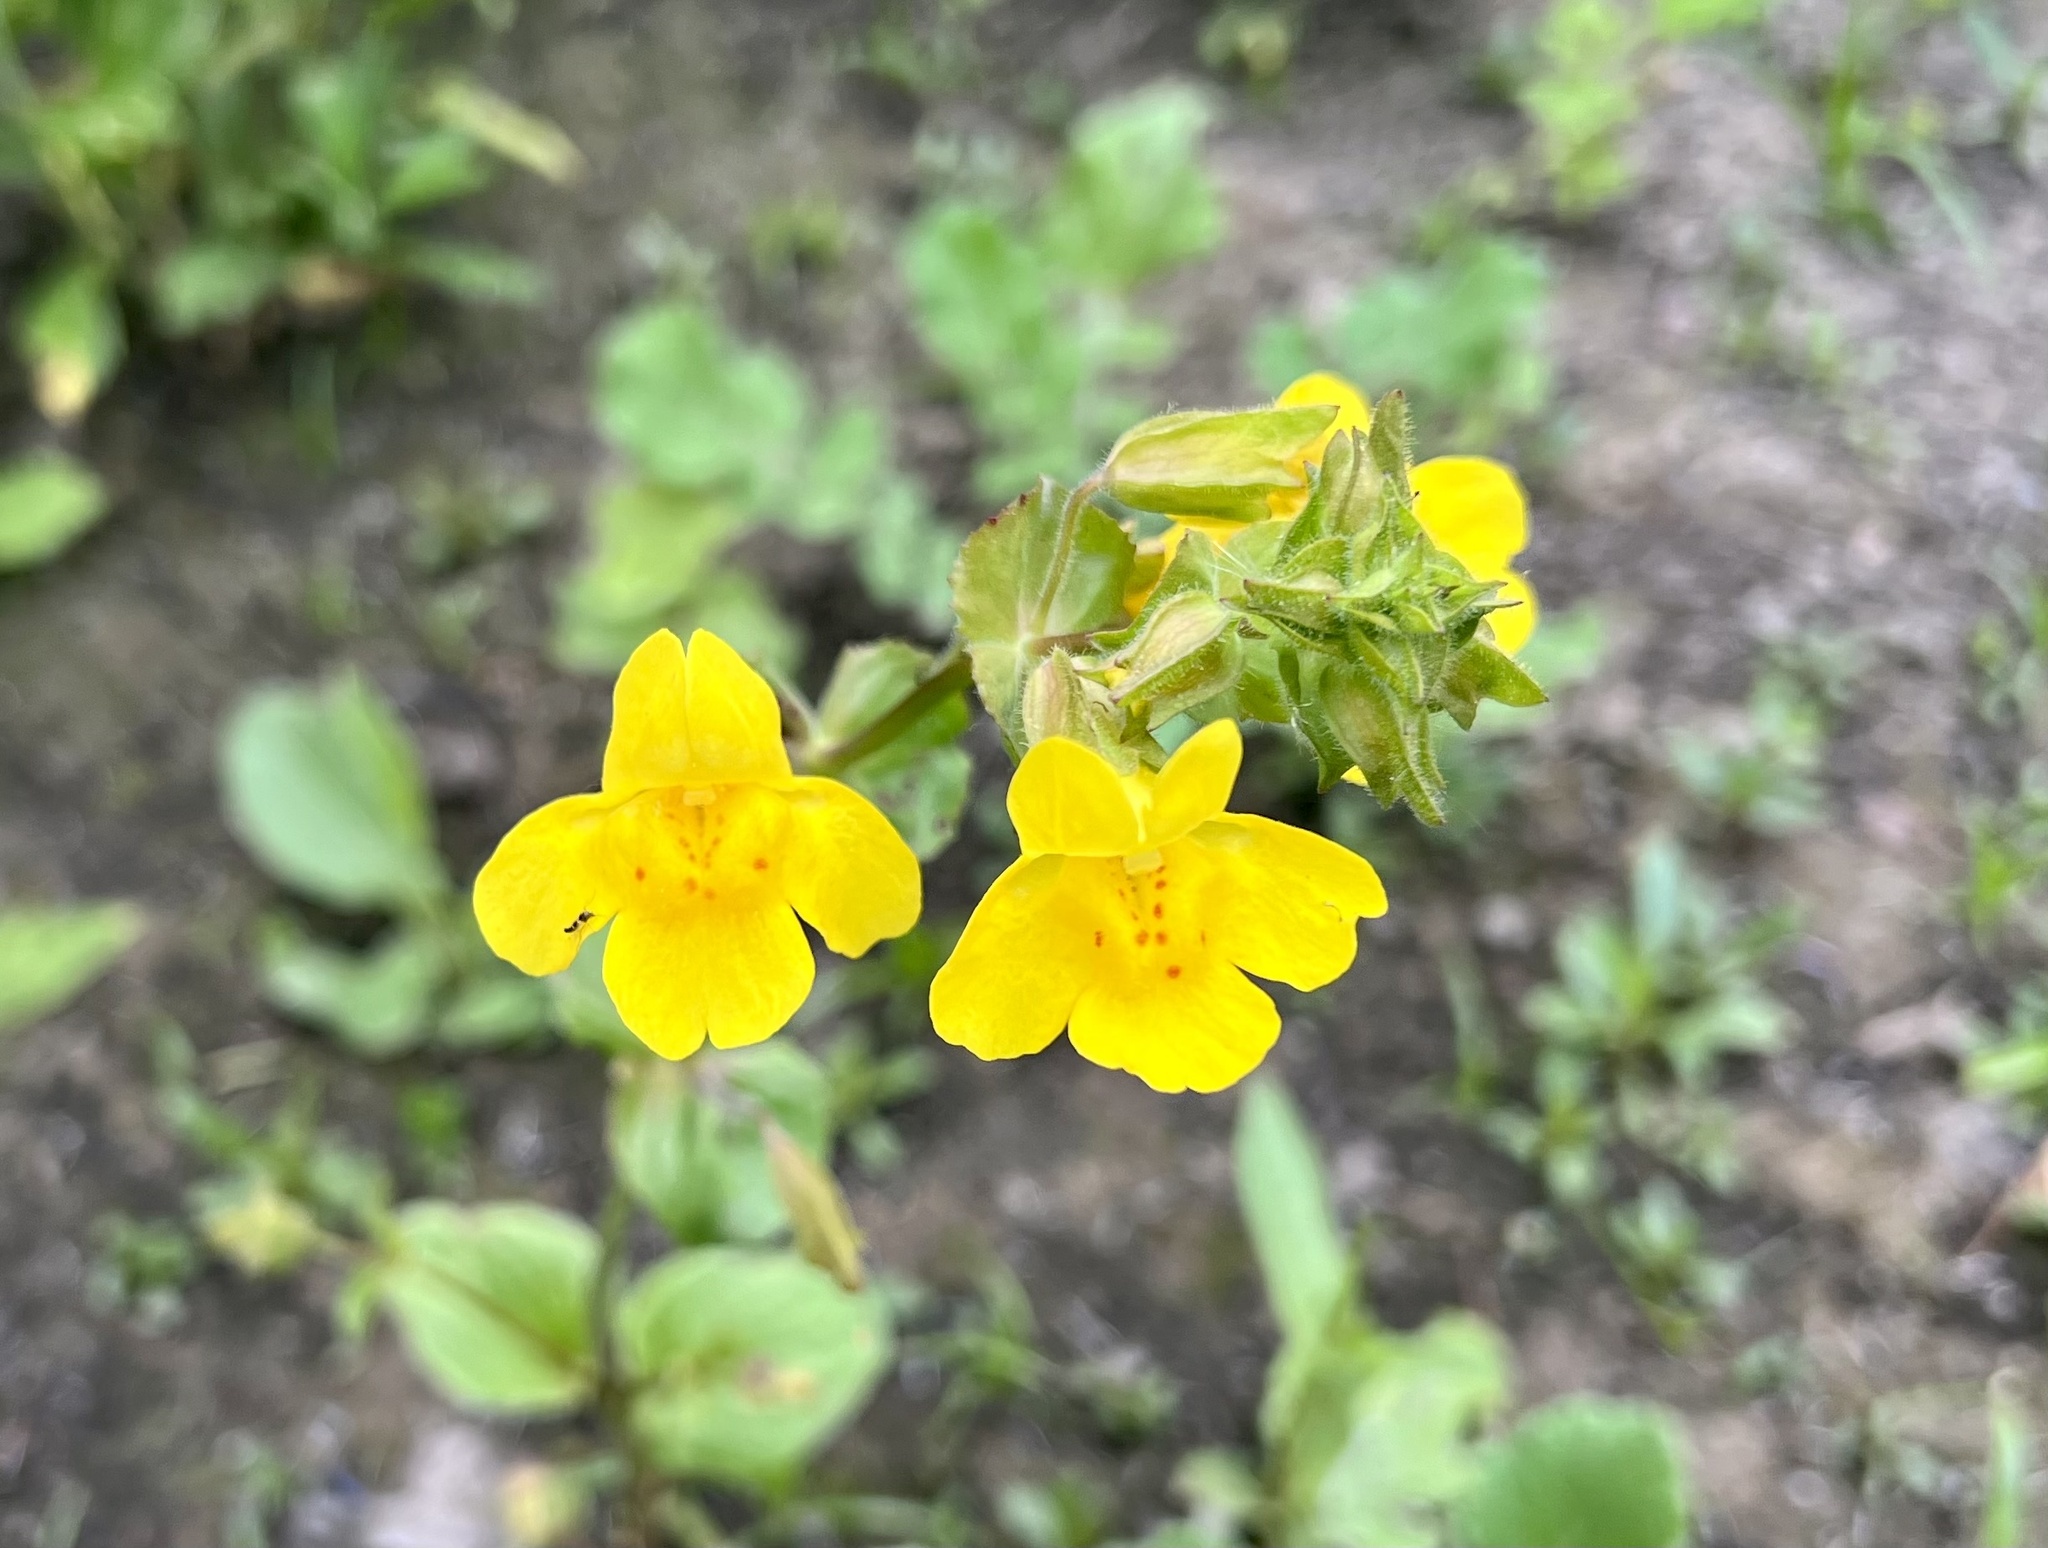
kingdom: Plantae
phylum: Tracheophyta
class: Magnoliopsida
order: Lamiales
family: Phrymaceae
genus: Erythranthe
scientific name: Erythranthe guttata
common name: Monkeyflower
